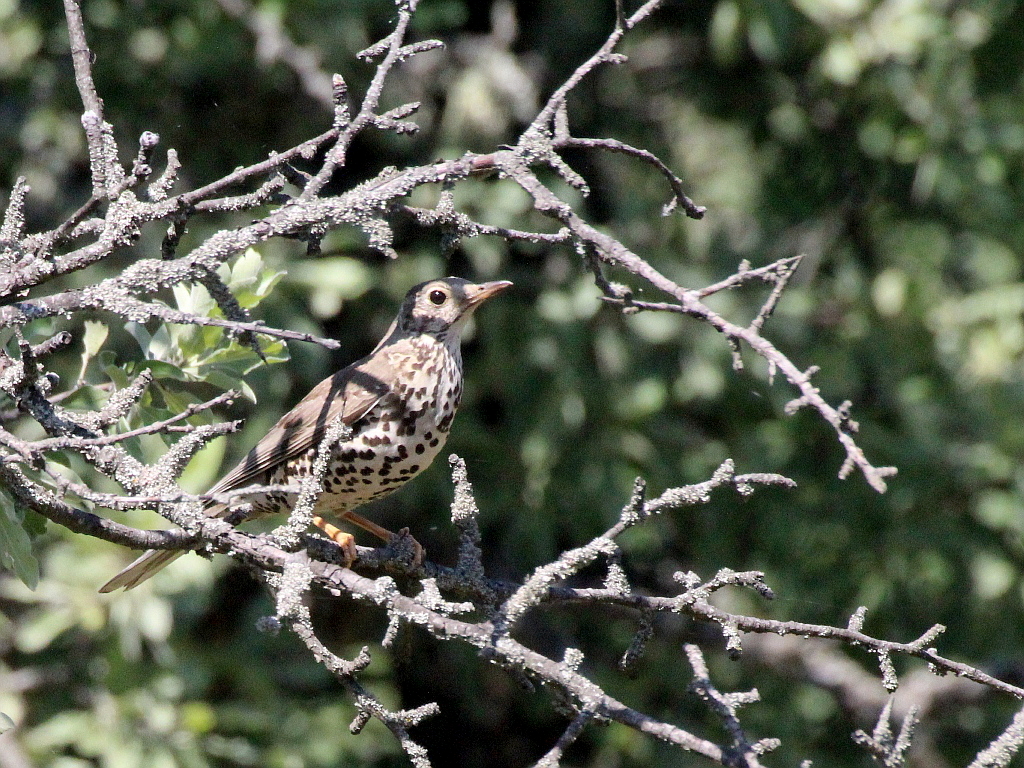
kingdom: Animalia
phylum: Chordata
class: Aves
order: Passeriformes
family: Turdidae
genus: Turdus
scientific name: Turdus viscivorus
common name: Mistle thrush
